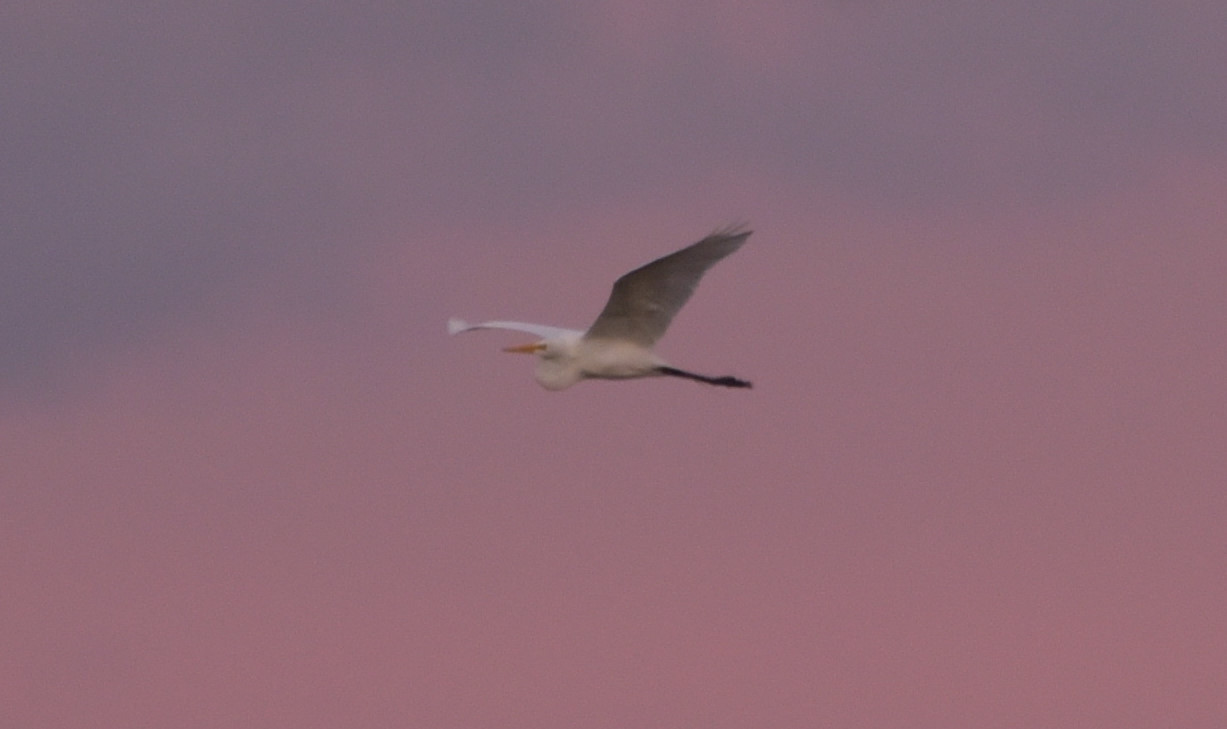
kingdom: Animalia
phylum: Chordata
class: Aves
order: Pelecaniformes
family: Ardeidae
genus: Ardea
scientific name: Ardea alba
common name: Great egret
